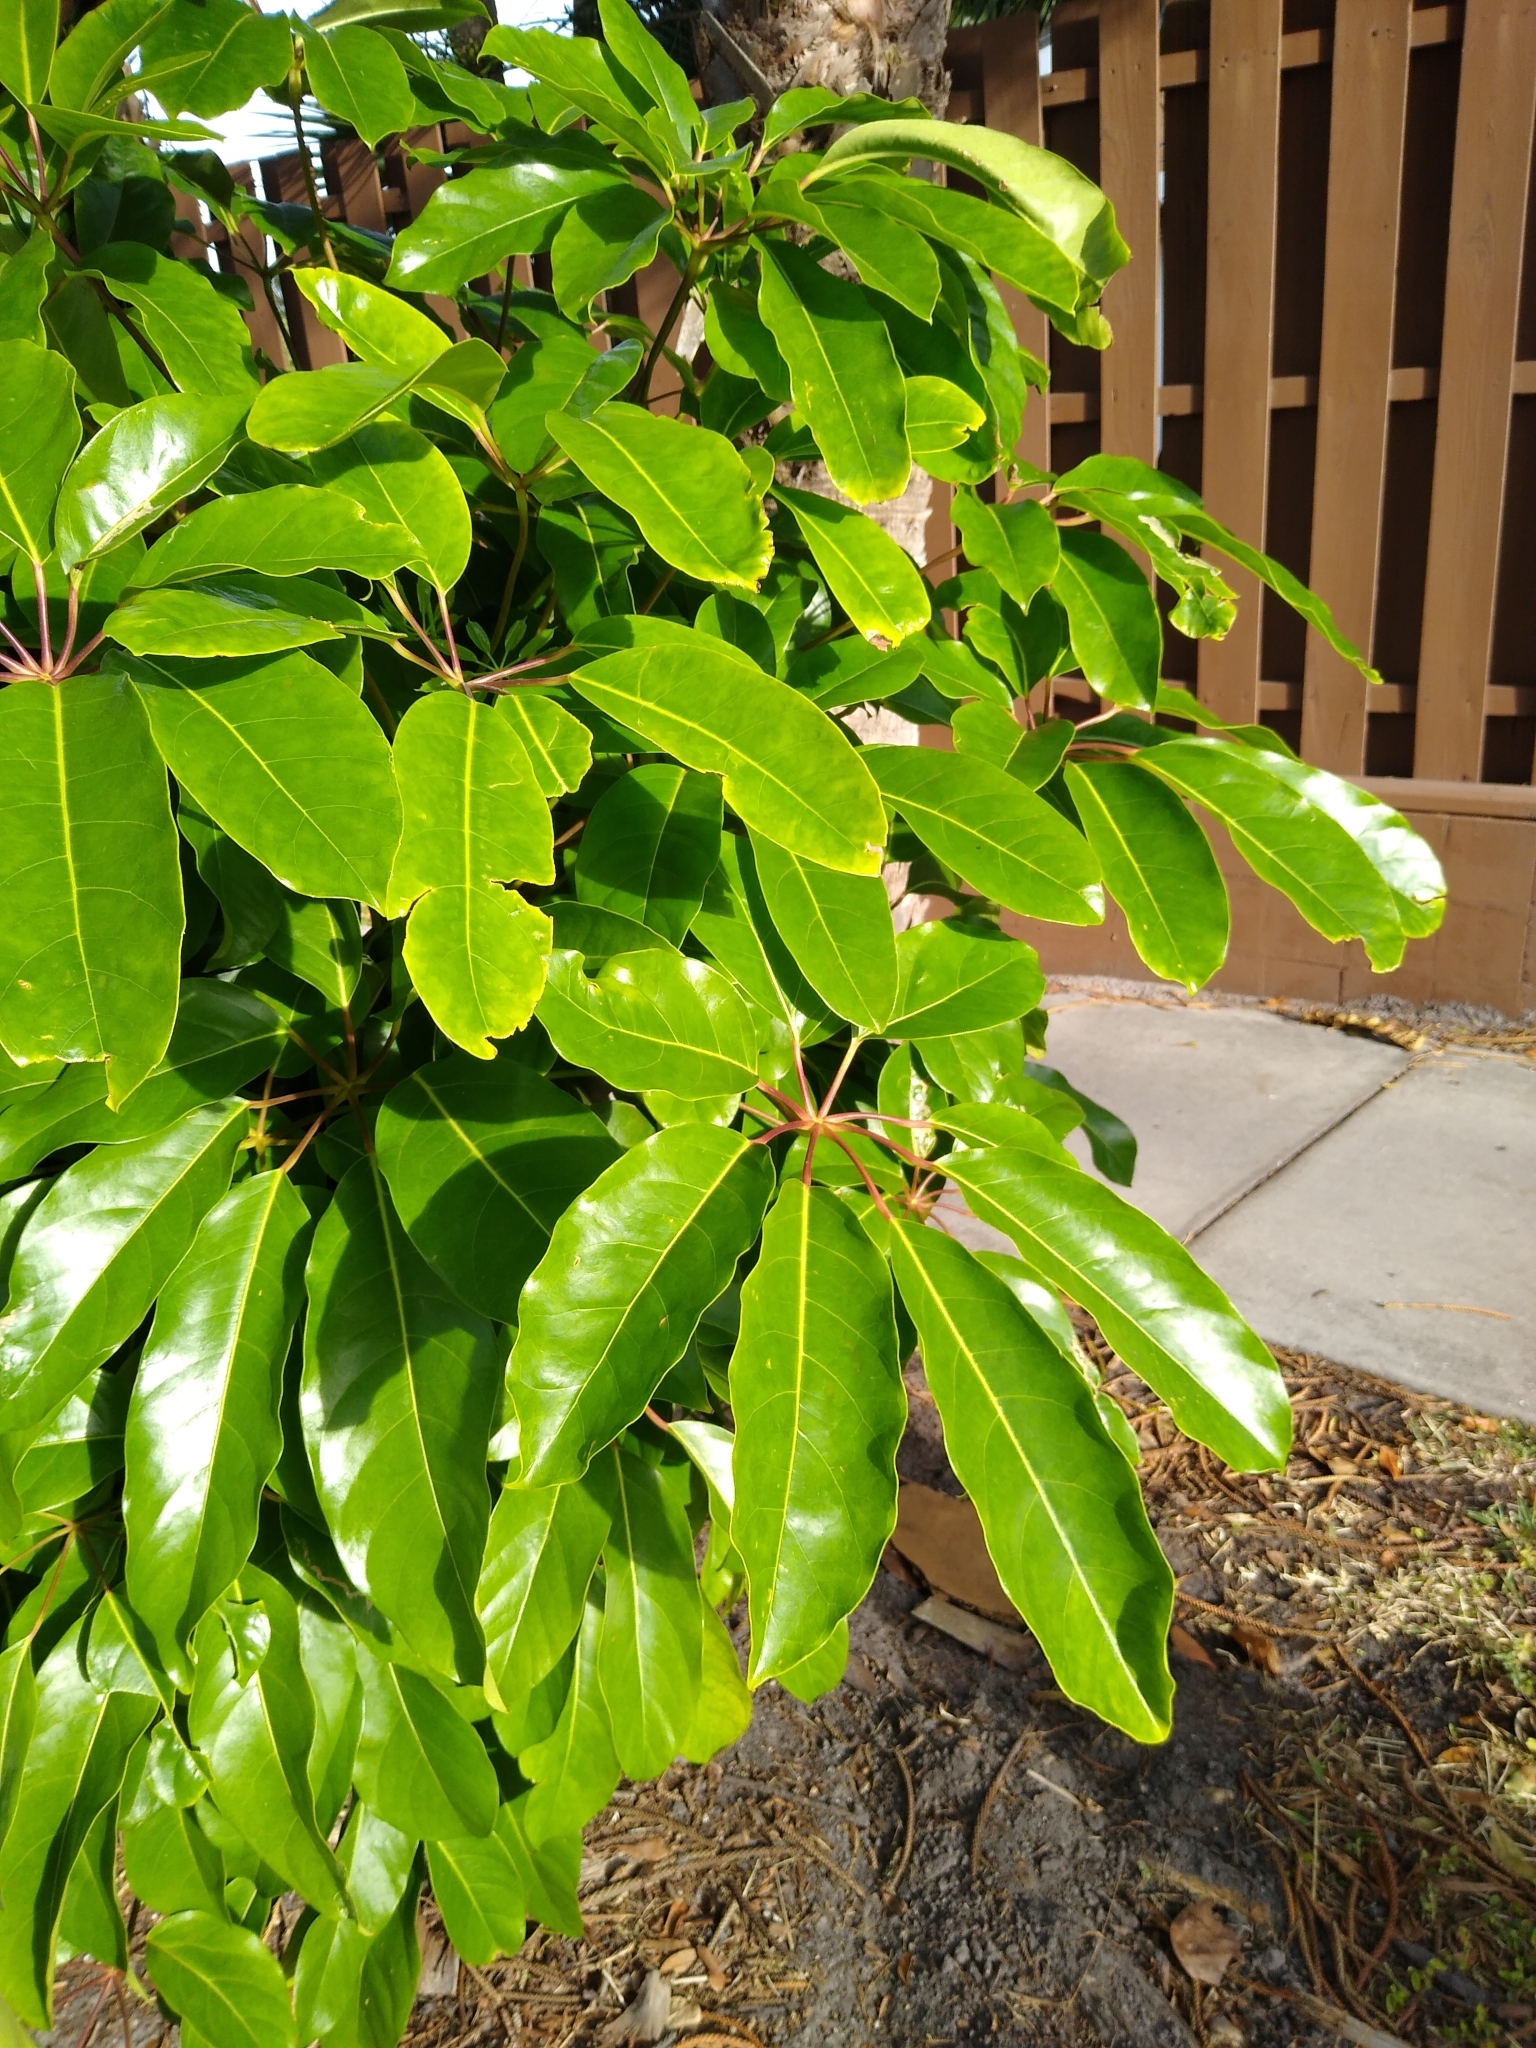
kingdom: Plantae
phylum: Tracheophyta
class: Magnoliopsida
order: Apiales
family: Araliaceae
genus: Heptapleurum
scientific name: Heptapleurum actinophyllum
